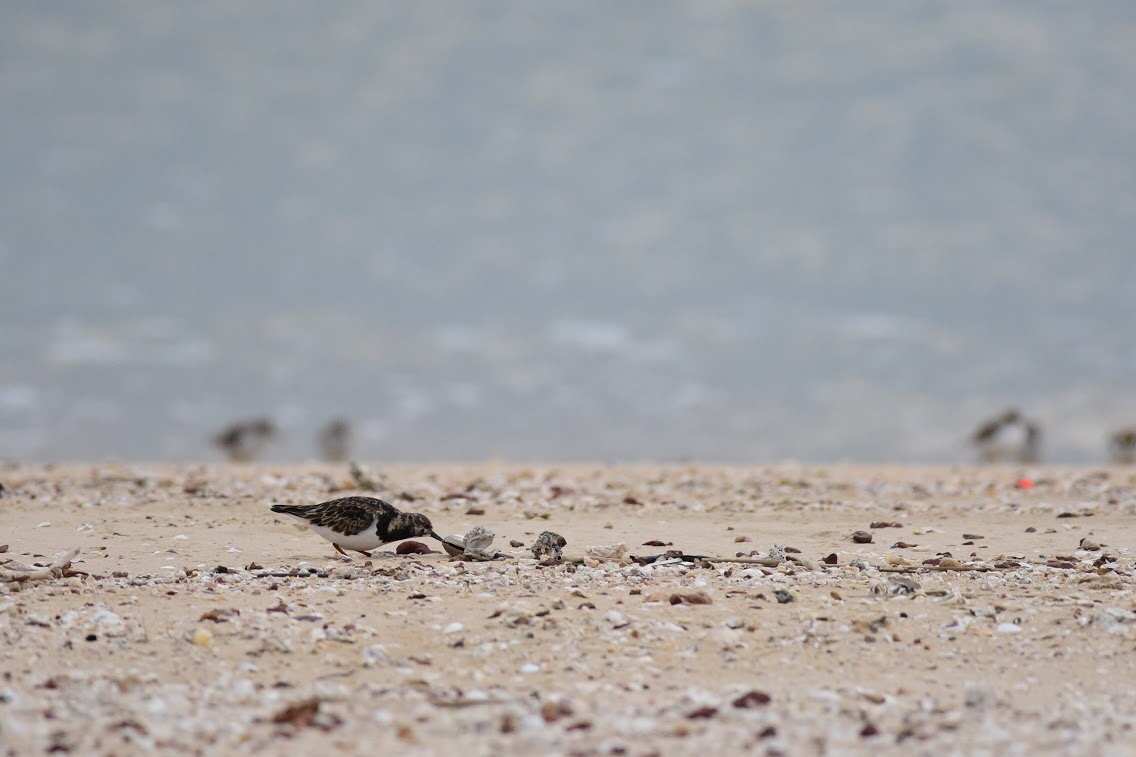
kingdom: Animalia
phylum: Chordata
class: Aves
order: Charadriiformes
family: Scolopacidae
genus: Arenaria
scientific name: Arenaria interpres
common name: Ruddy turnstone
